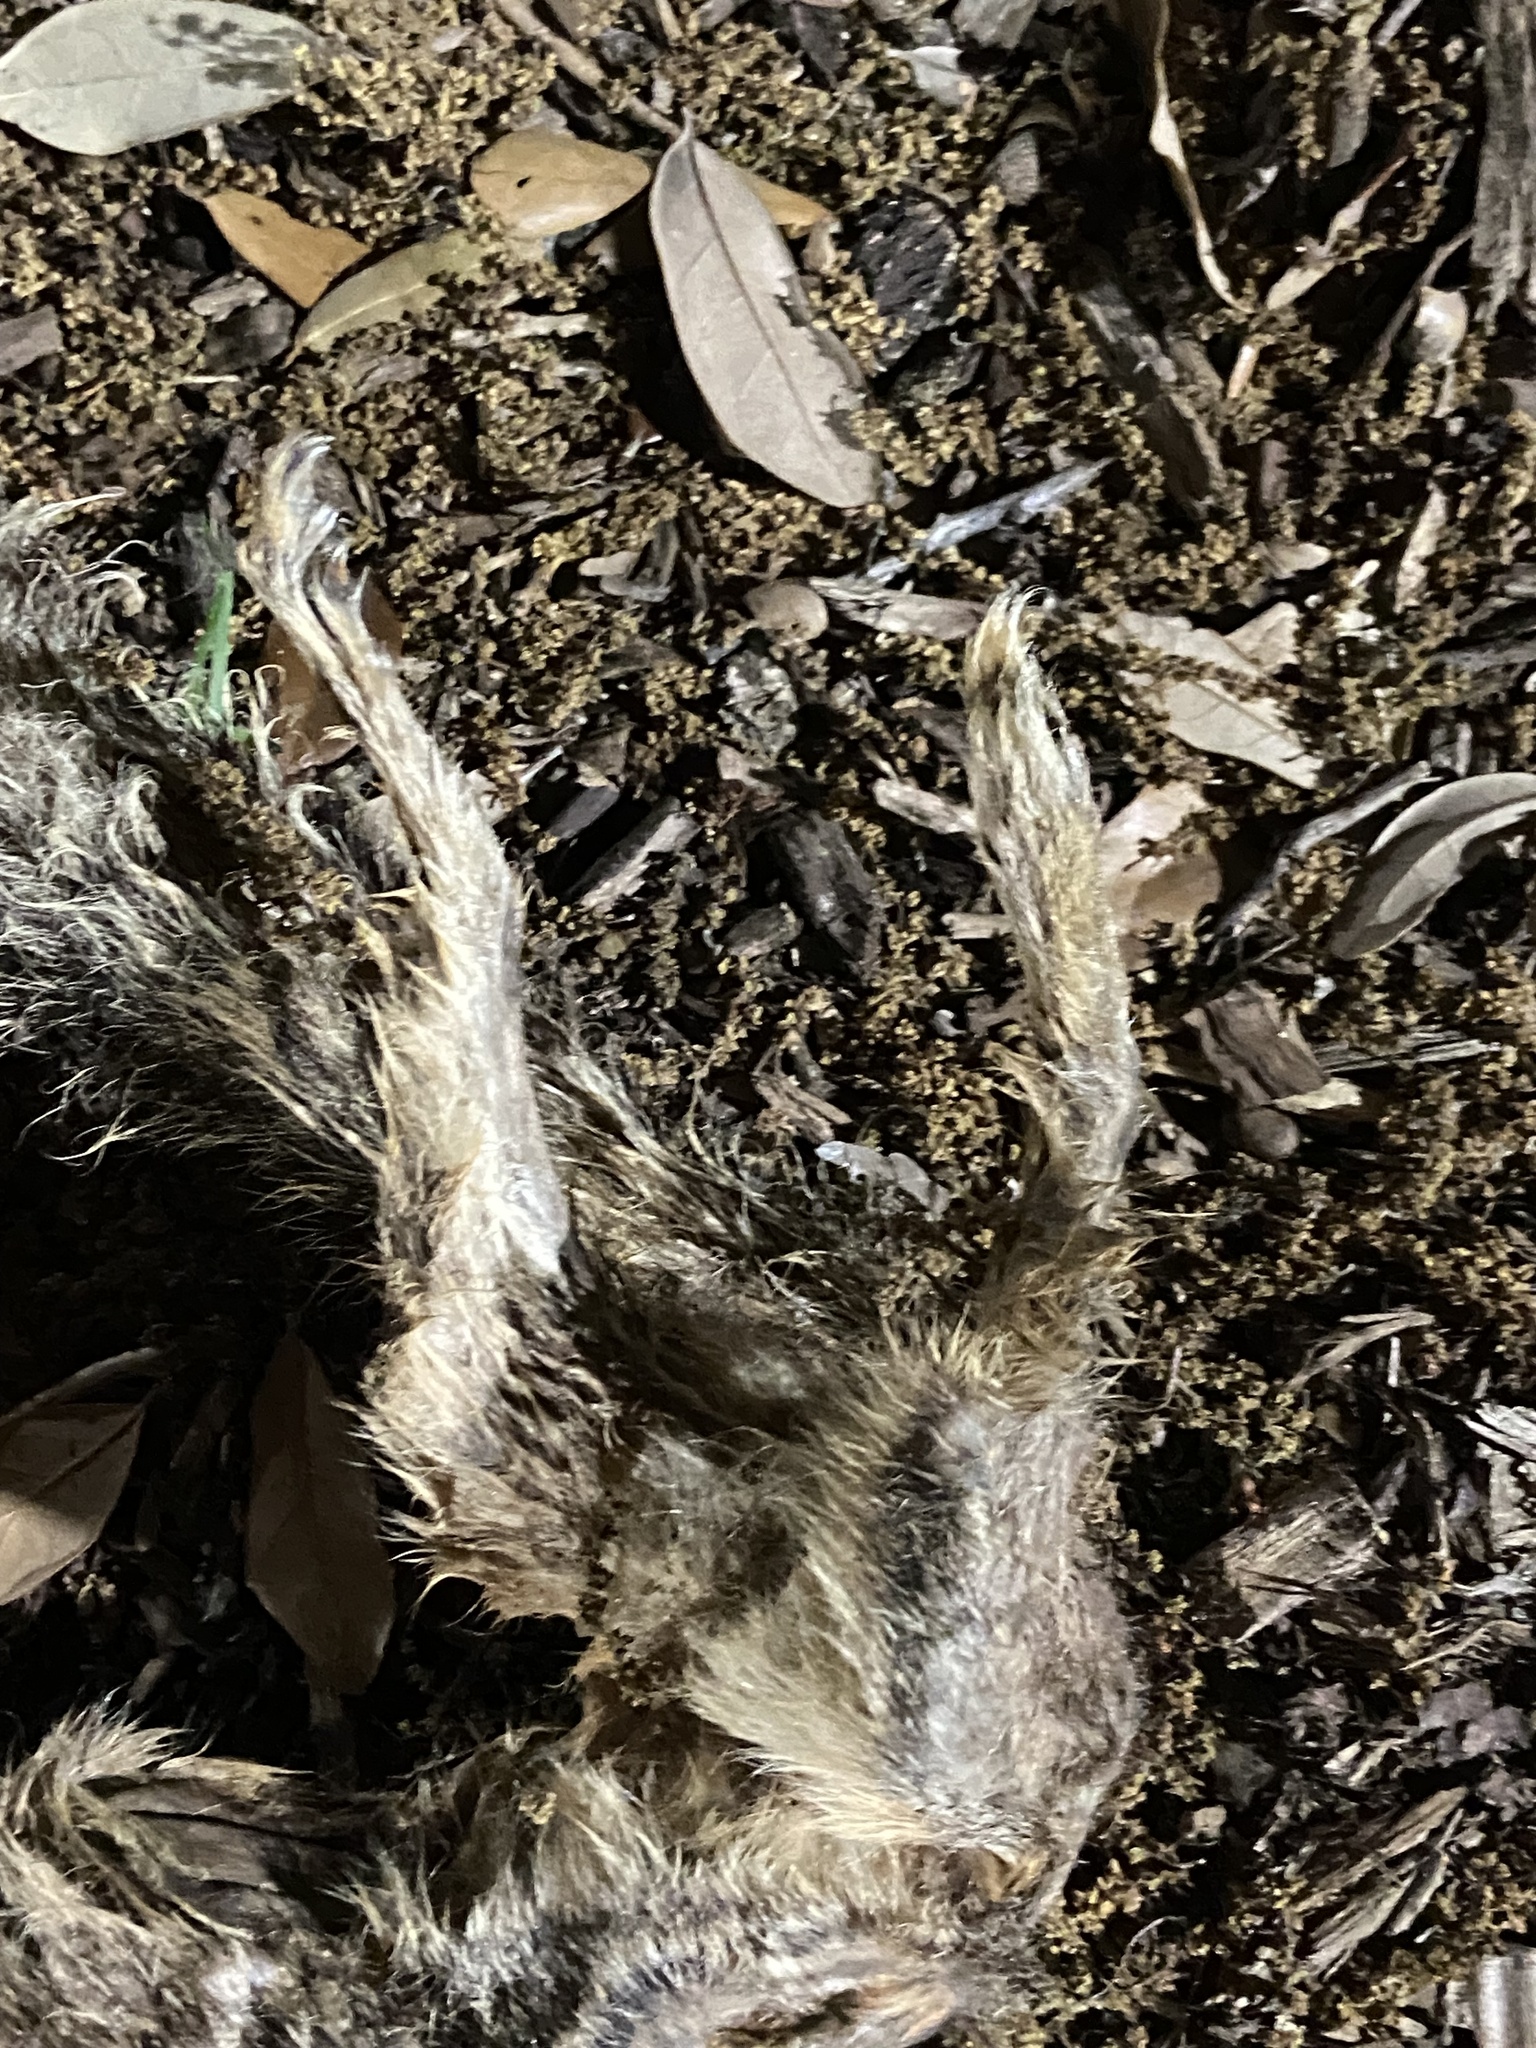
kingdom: Animalia
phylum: Chordata
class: Mammalia
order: Rodentia
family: Sciuridae
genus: Sciurus
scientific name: Sciurus niger
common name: Fox squirrel
